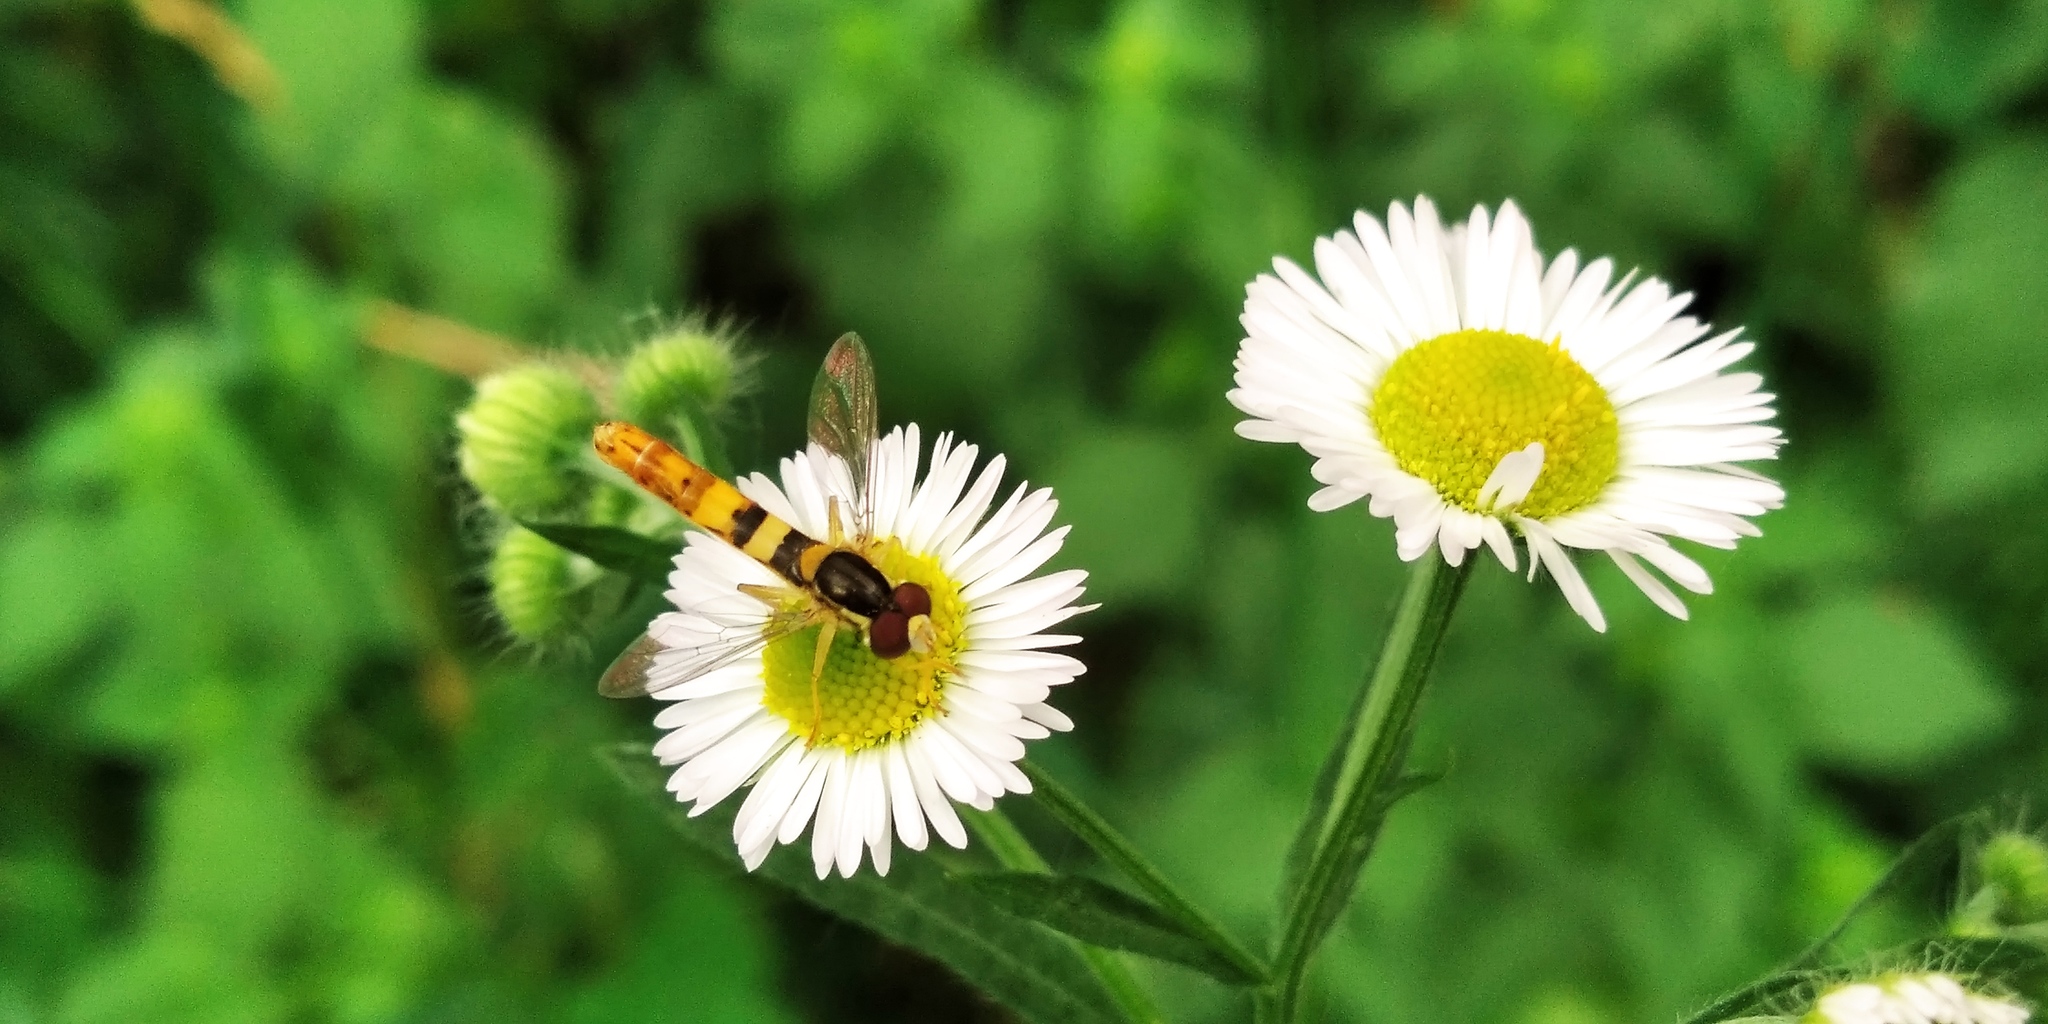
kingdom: Animalia
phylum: Arthropoda
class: Insecta
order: Diptera
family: Syrphidae
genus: Sphaerophoria
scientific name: Sphaerophoria scripta
